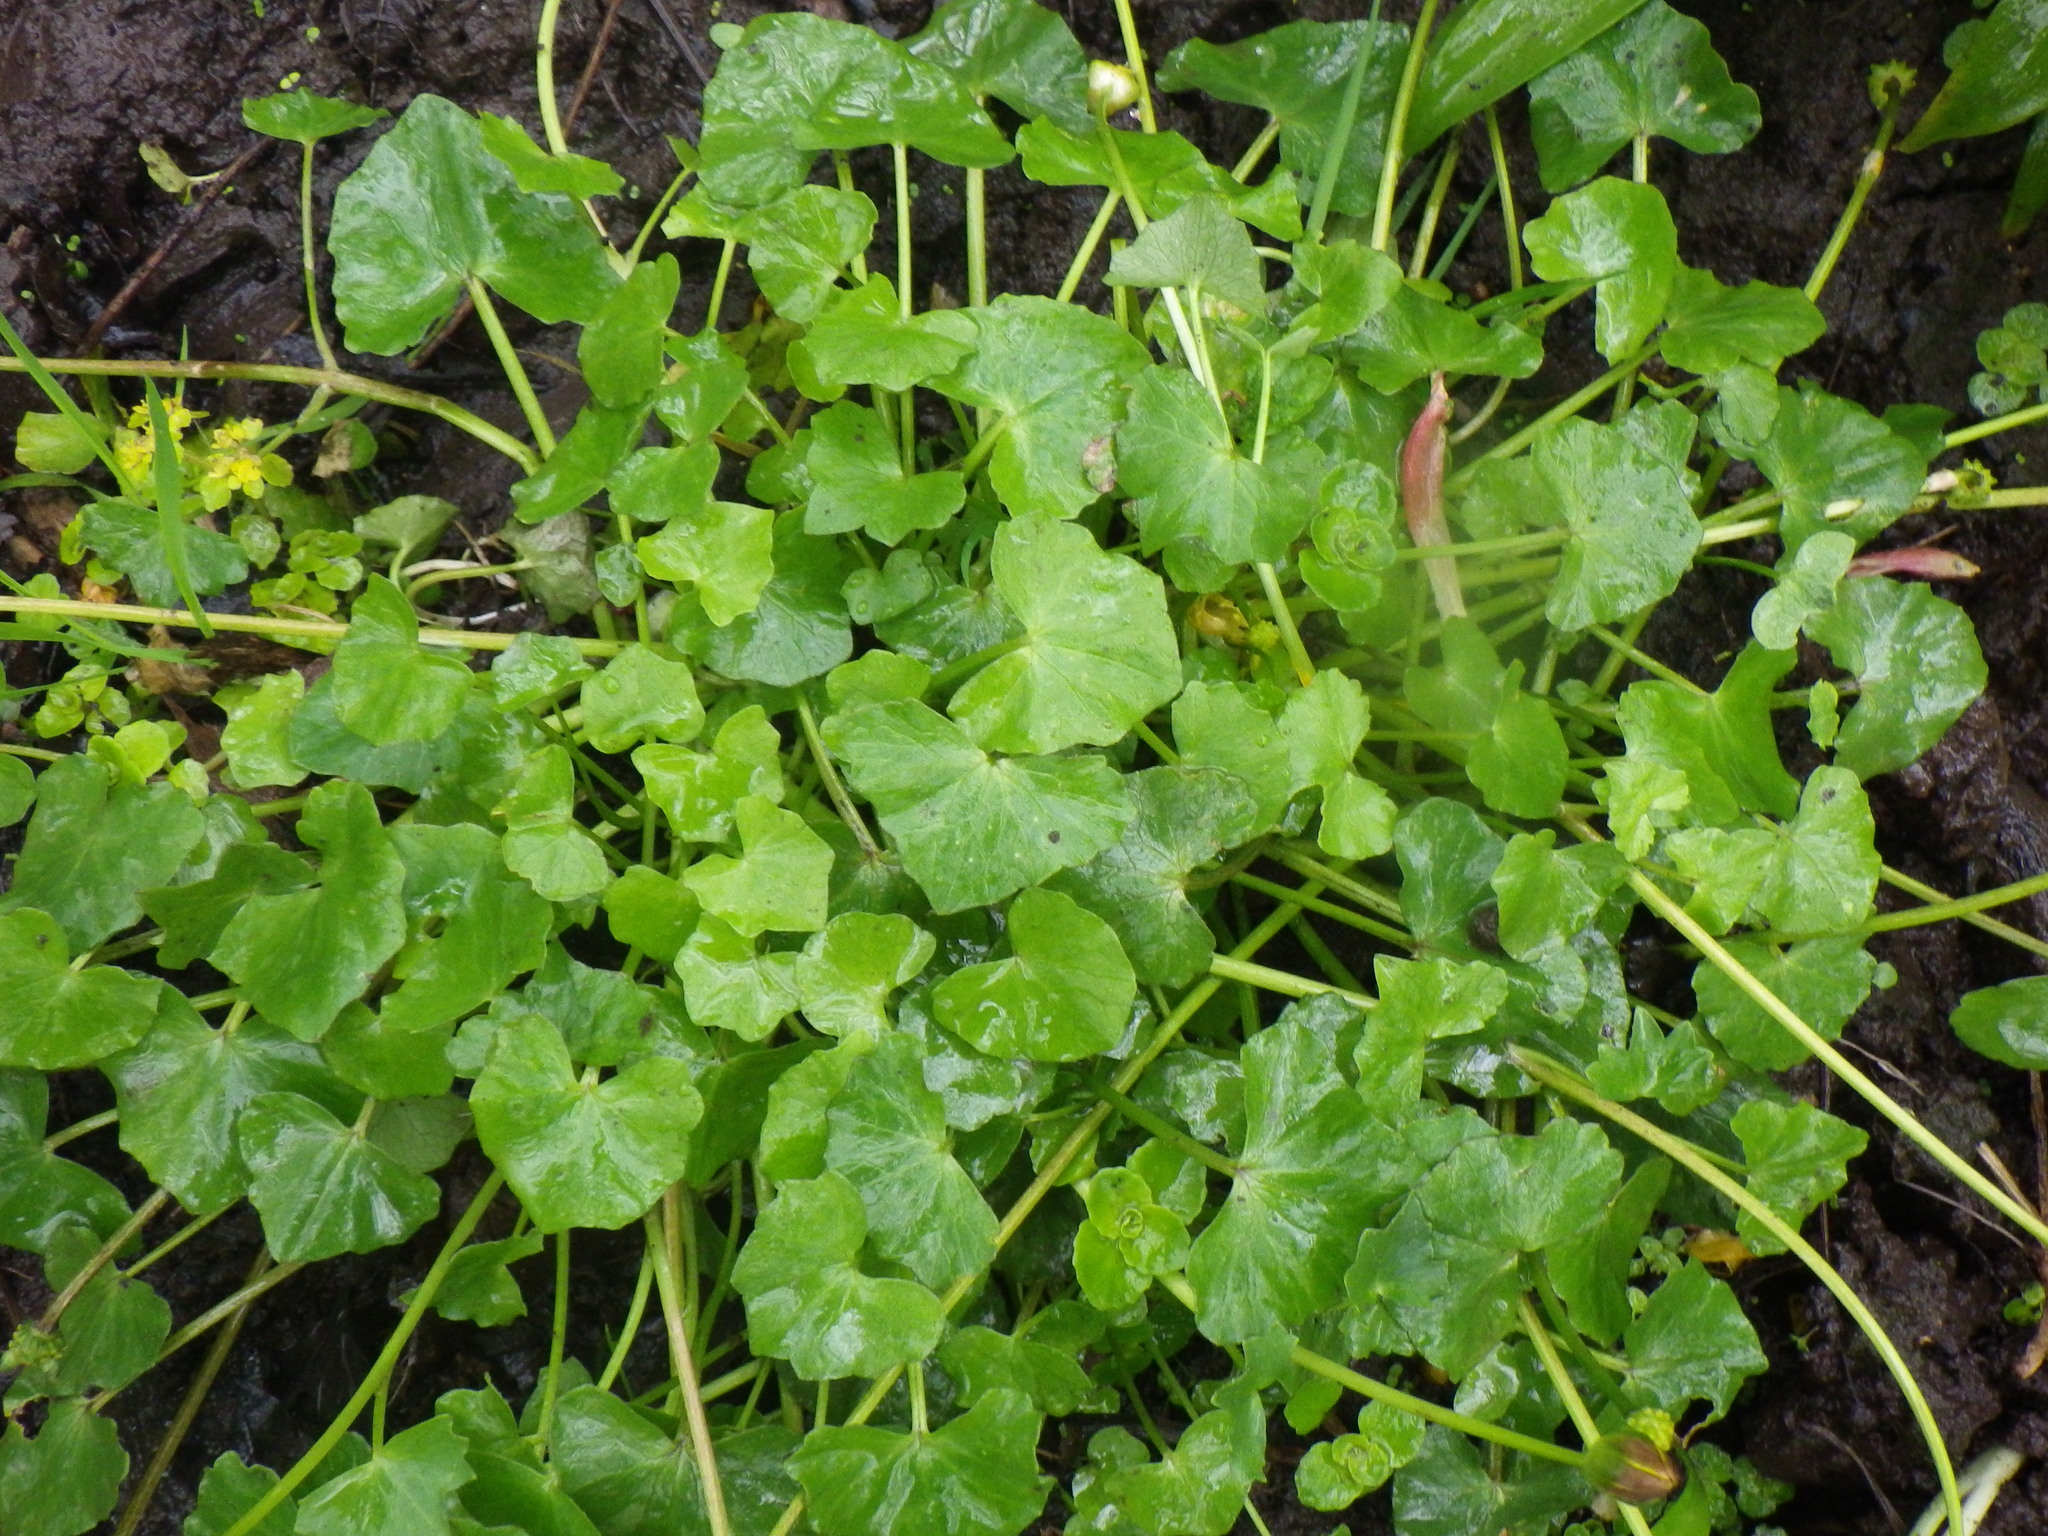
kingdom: Plantae
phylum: Tracheophyta
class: Magnoliopsida
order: Ranunculales
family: Ranunculaceae
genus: Ficaria
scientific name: Ficaria verna
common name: Lesser celandine
